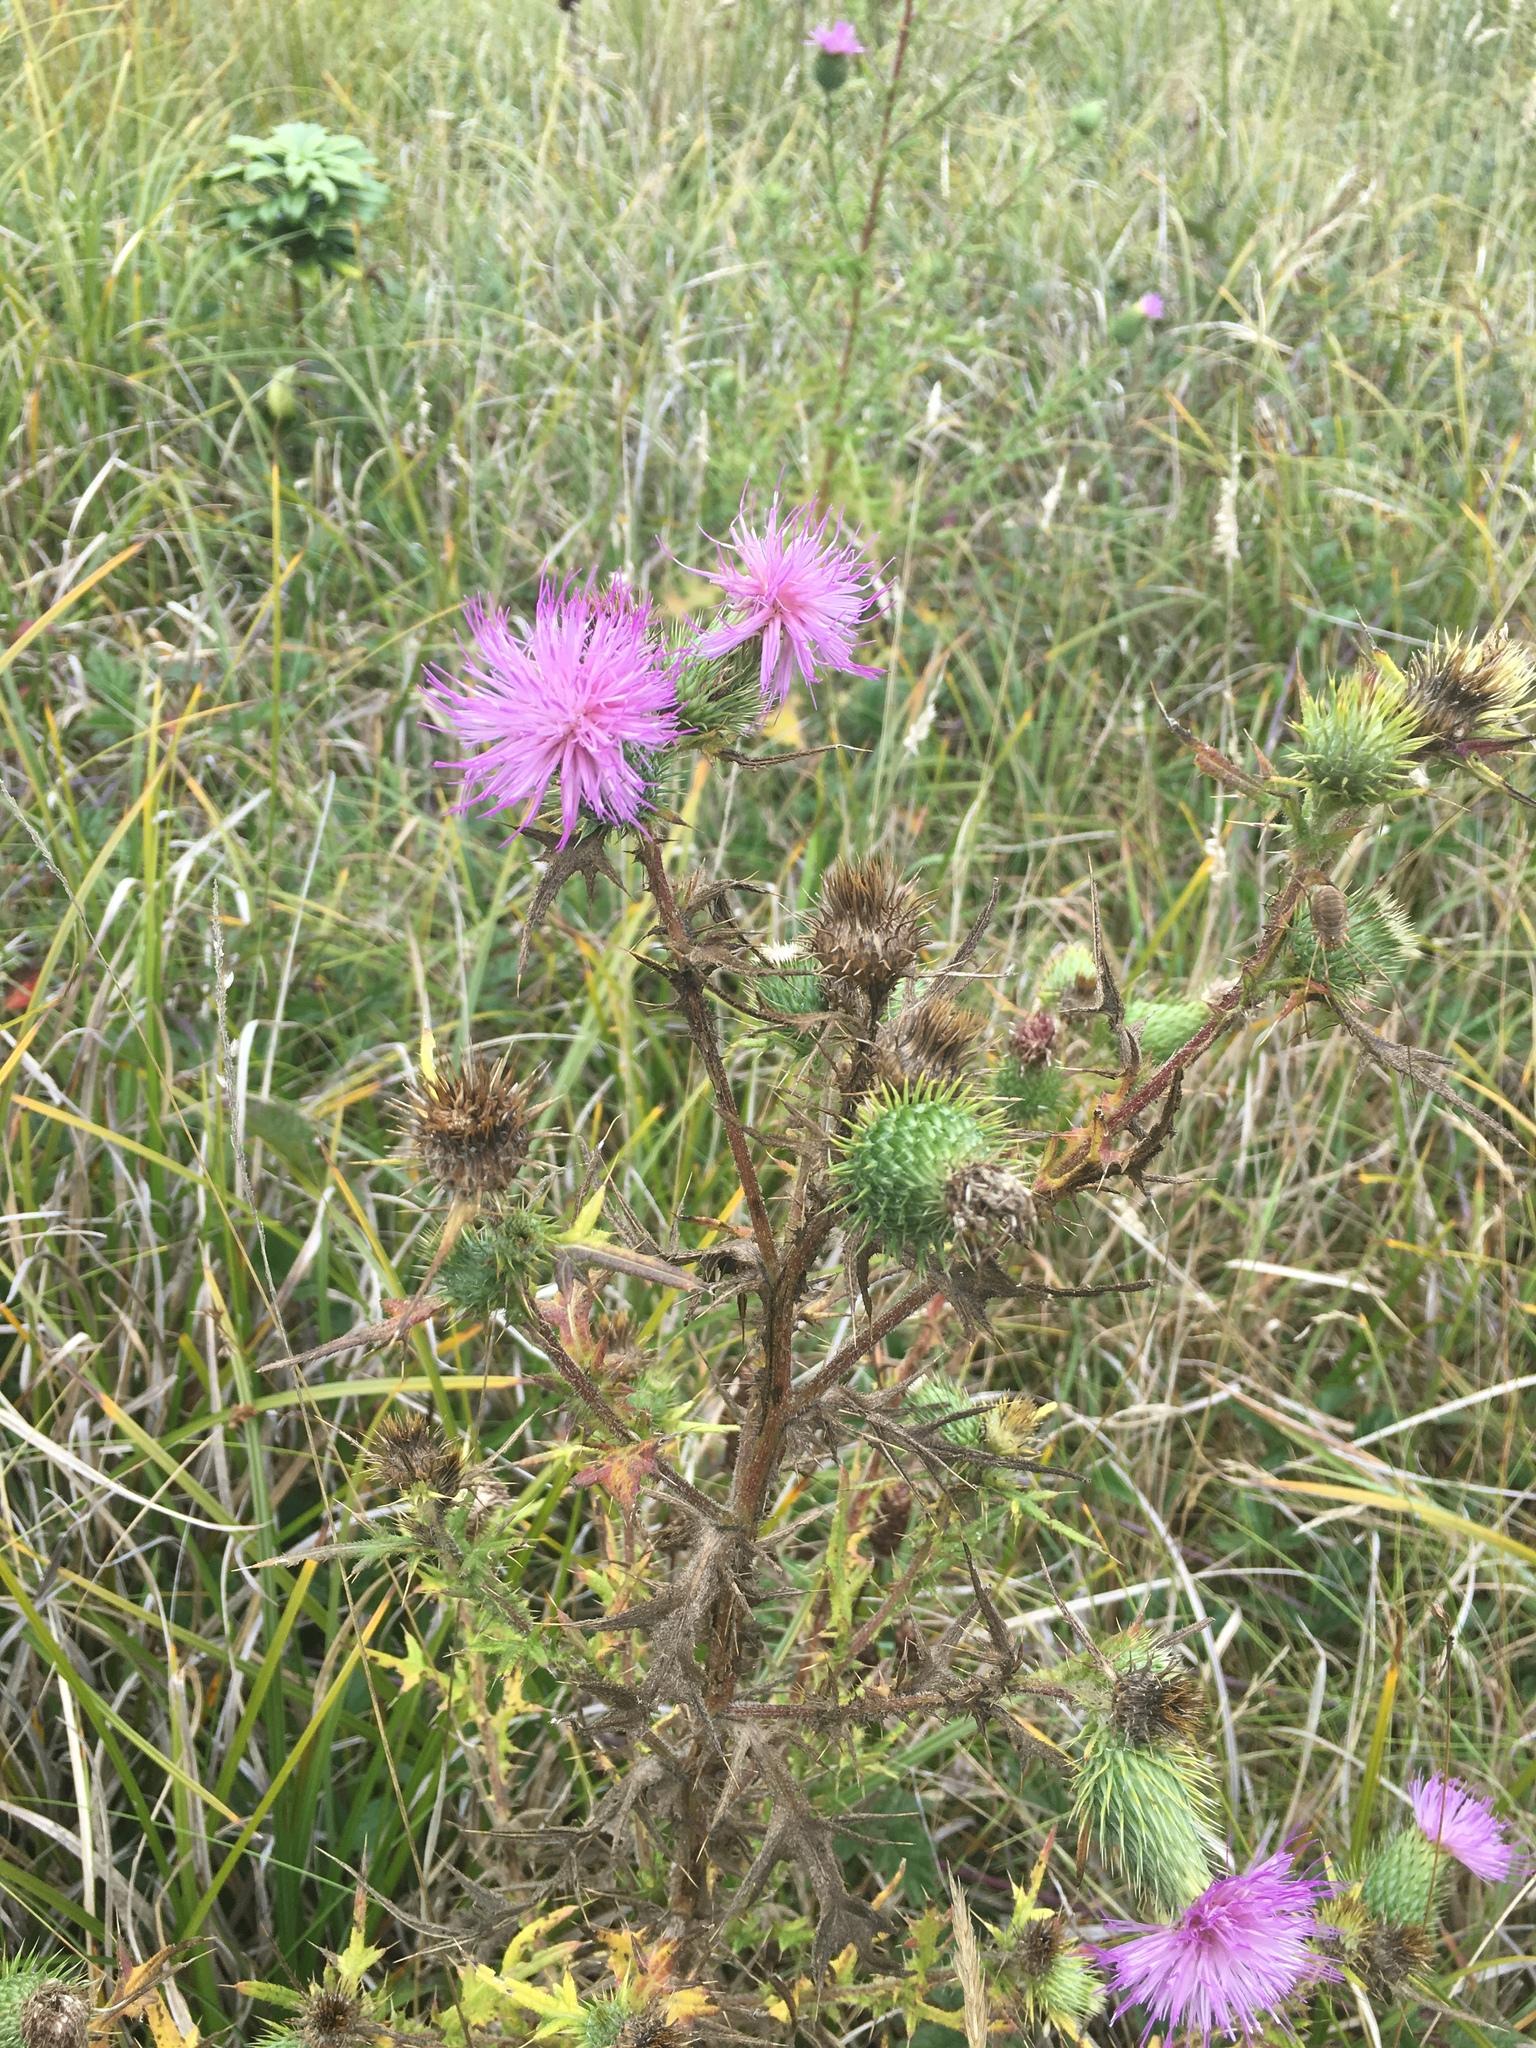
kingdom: Plantae
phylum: Tracheophyta
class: Magnoliopsida
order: Asterales
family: Asteraceae
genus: Cirsium
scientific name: Cirsium vulgare
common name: Bull thistle
